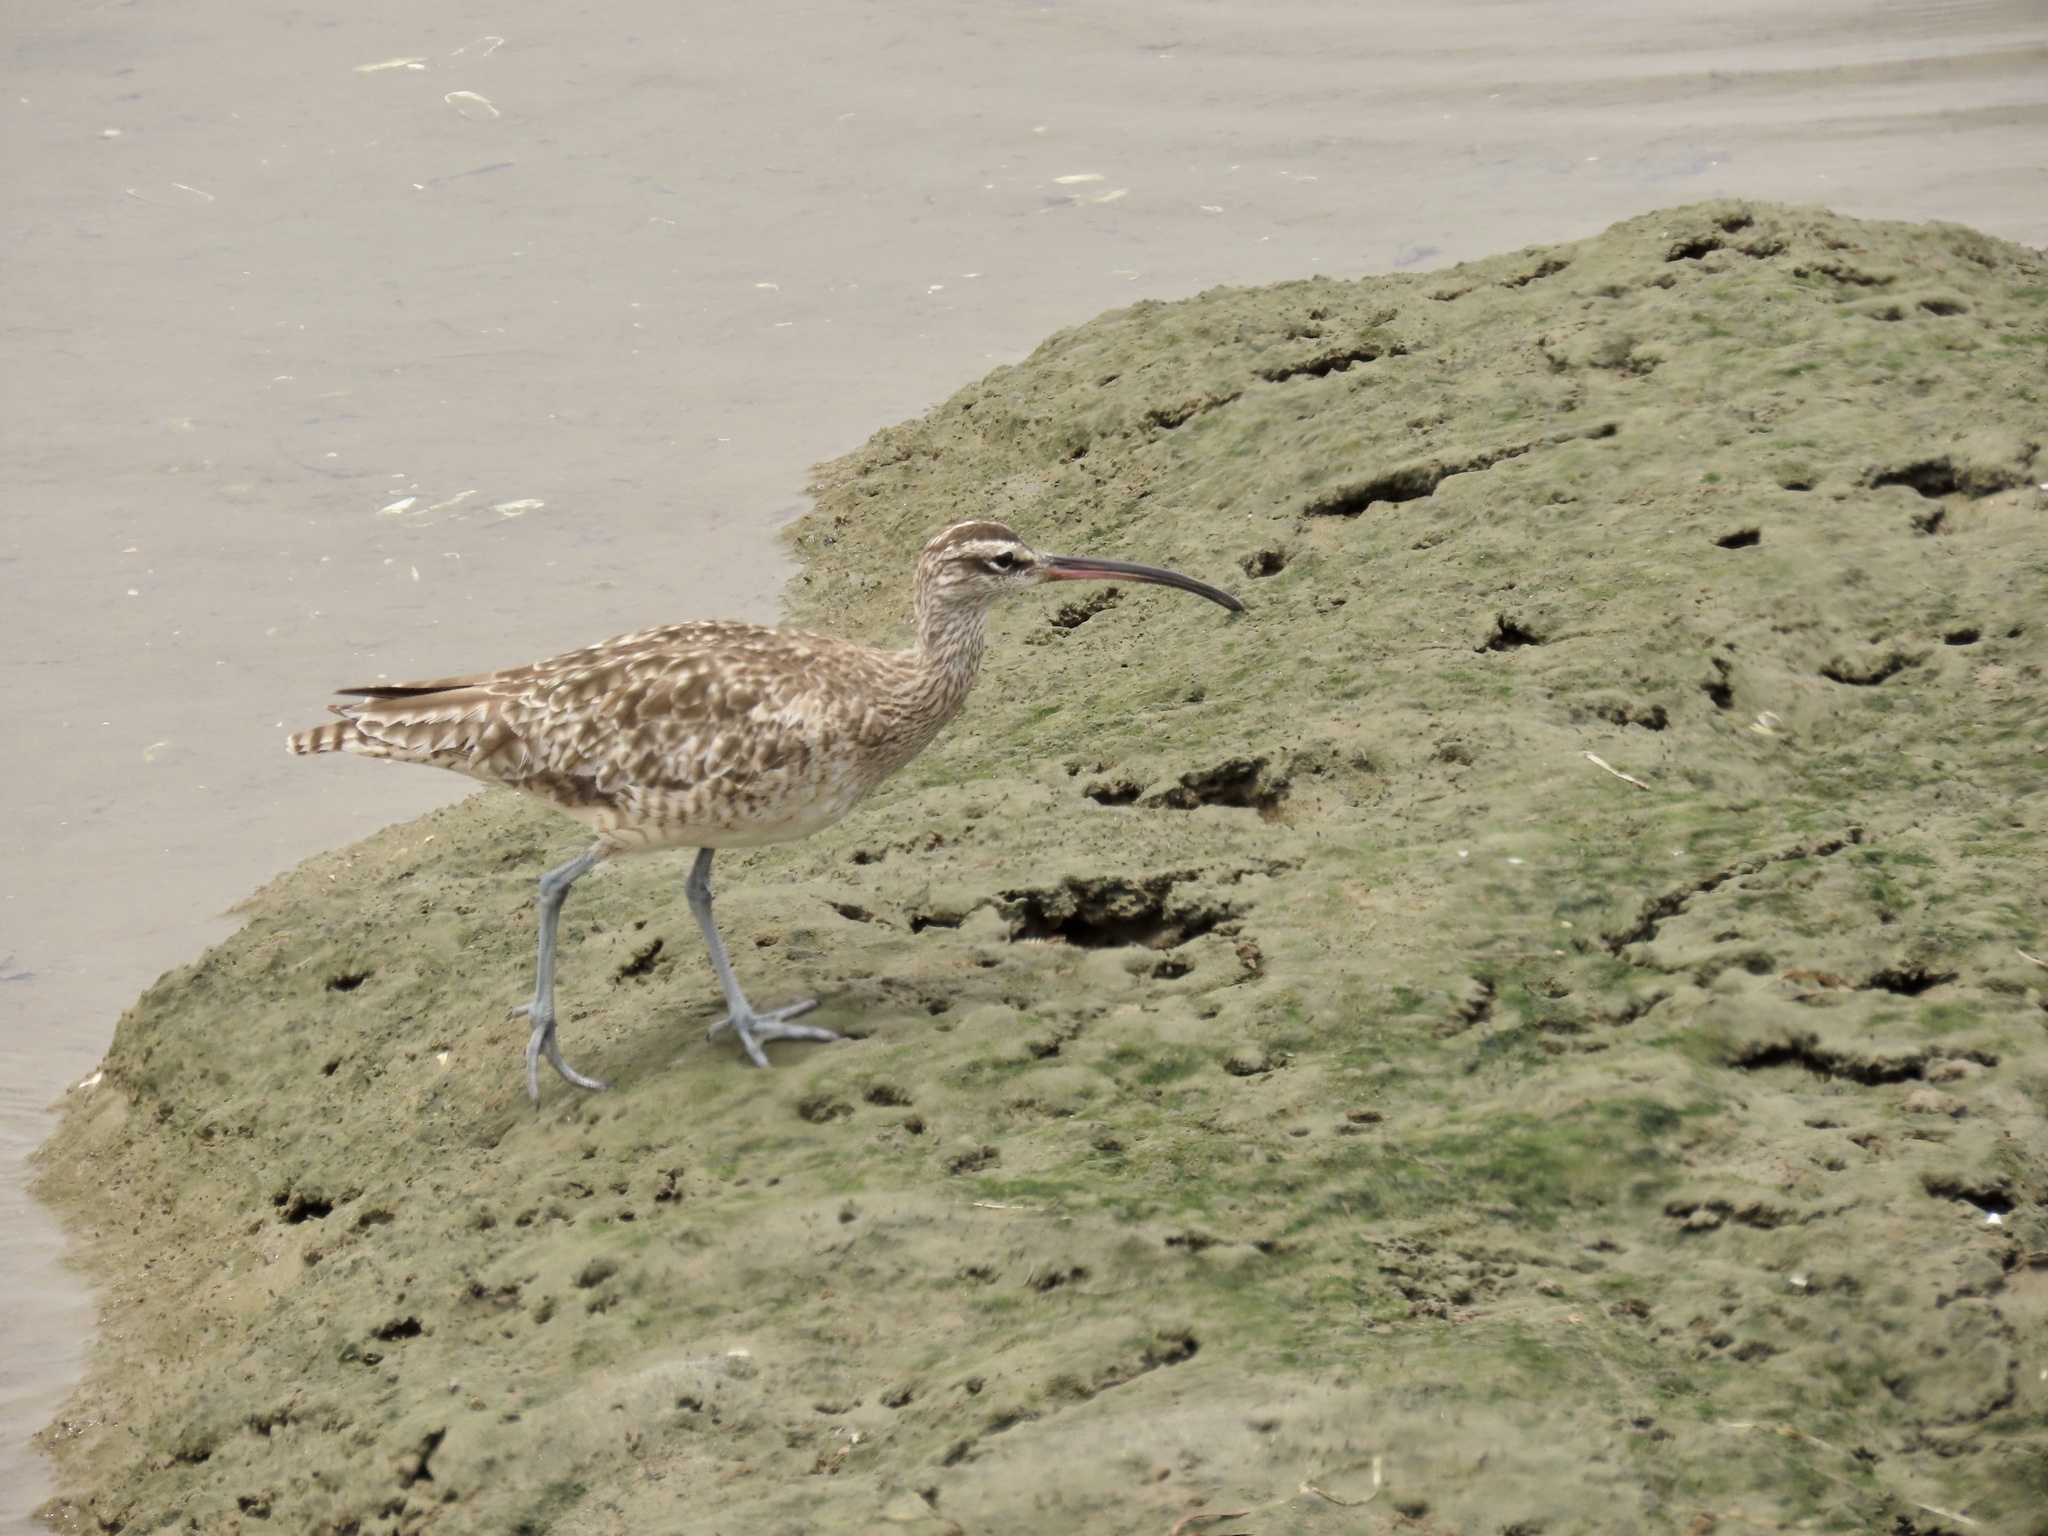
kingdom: Animalia
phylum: Chordata
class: Aves
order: Charadriiformes
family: Scolopacidae
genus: Numenius
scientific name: Numenius phaeopus
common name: Whimbrel
